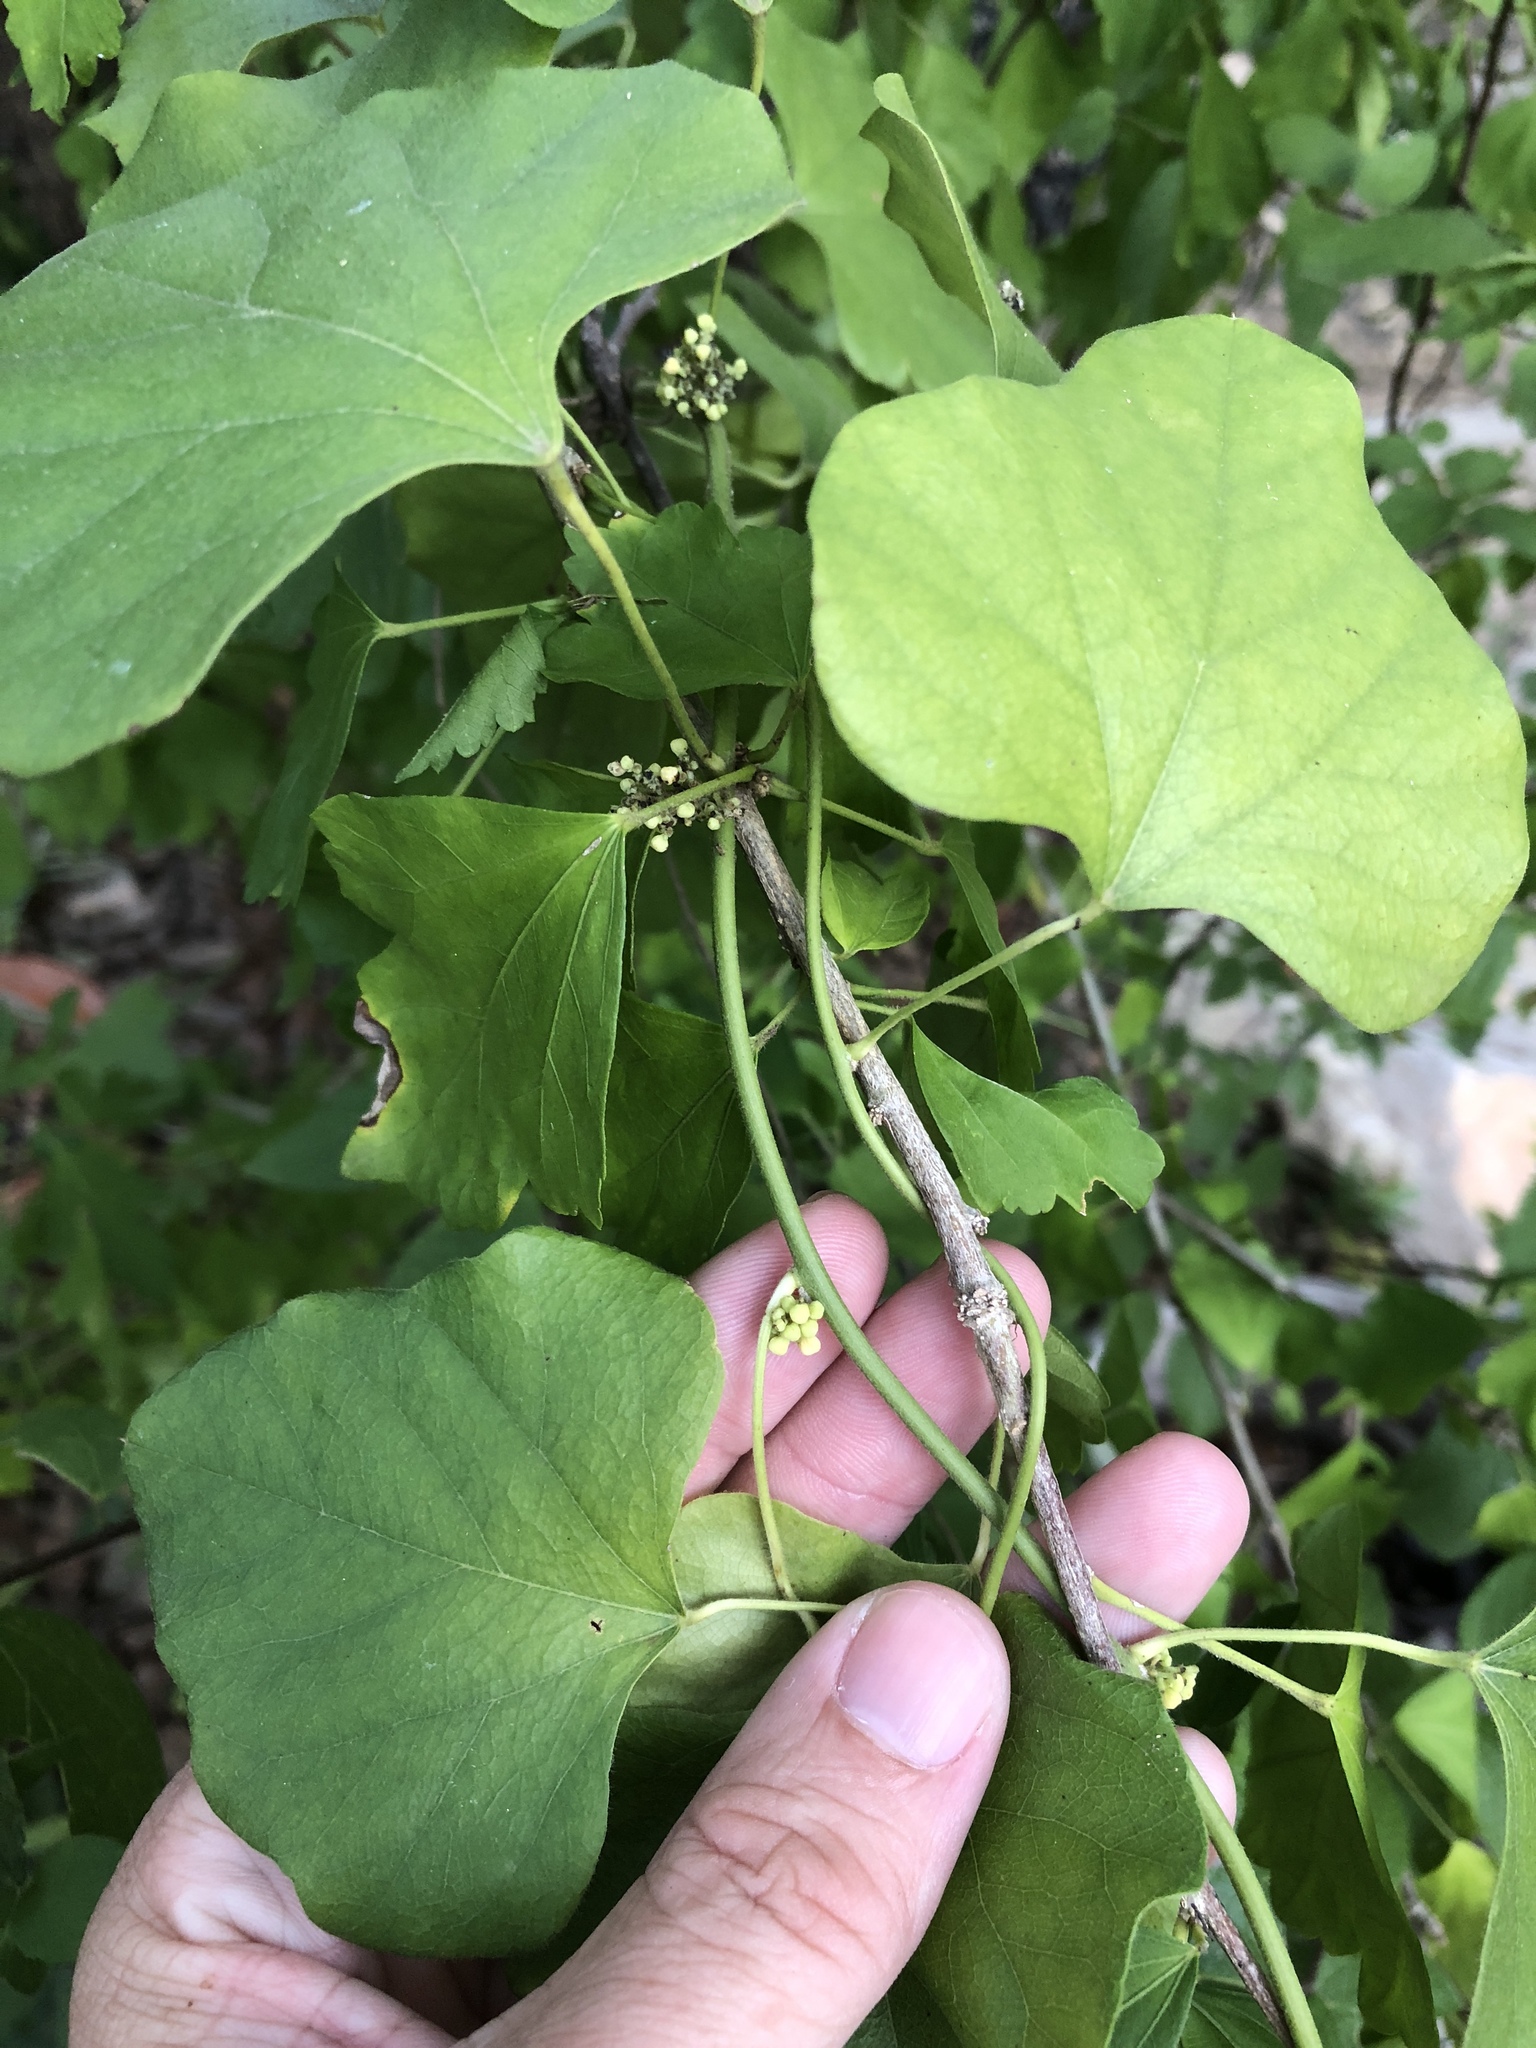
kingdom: Plantae
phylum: Tracheophyta
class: Magnoliopsida
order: Ranunculales
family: Menispermaceae
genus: Cocculus
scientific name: Cocculus carolinus
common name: Carolina moonseed
